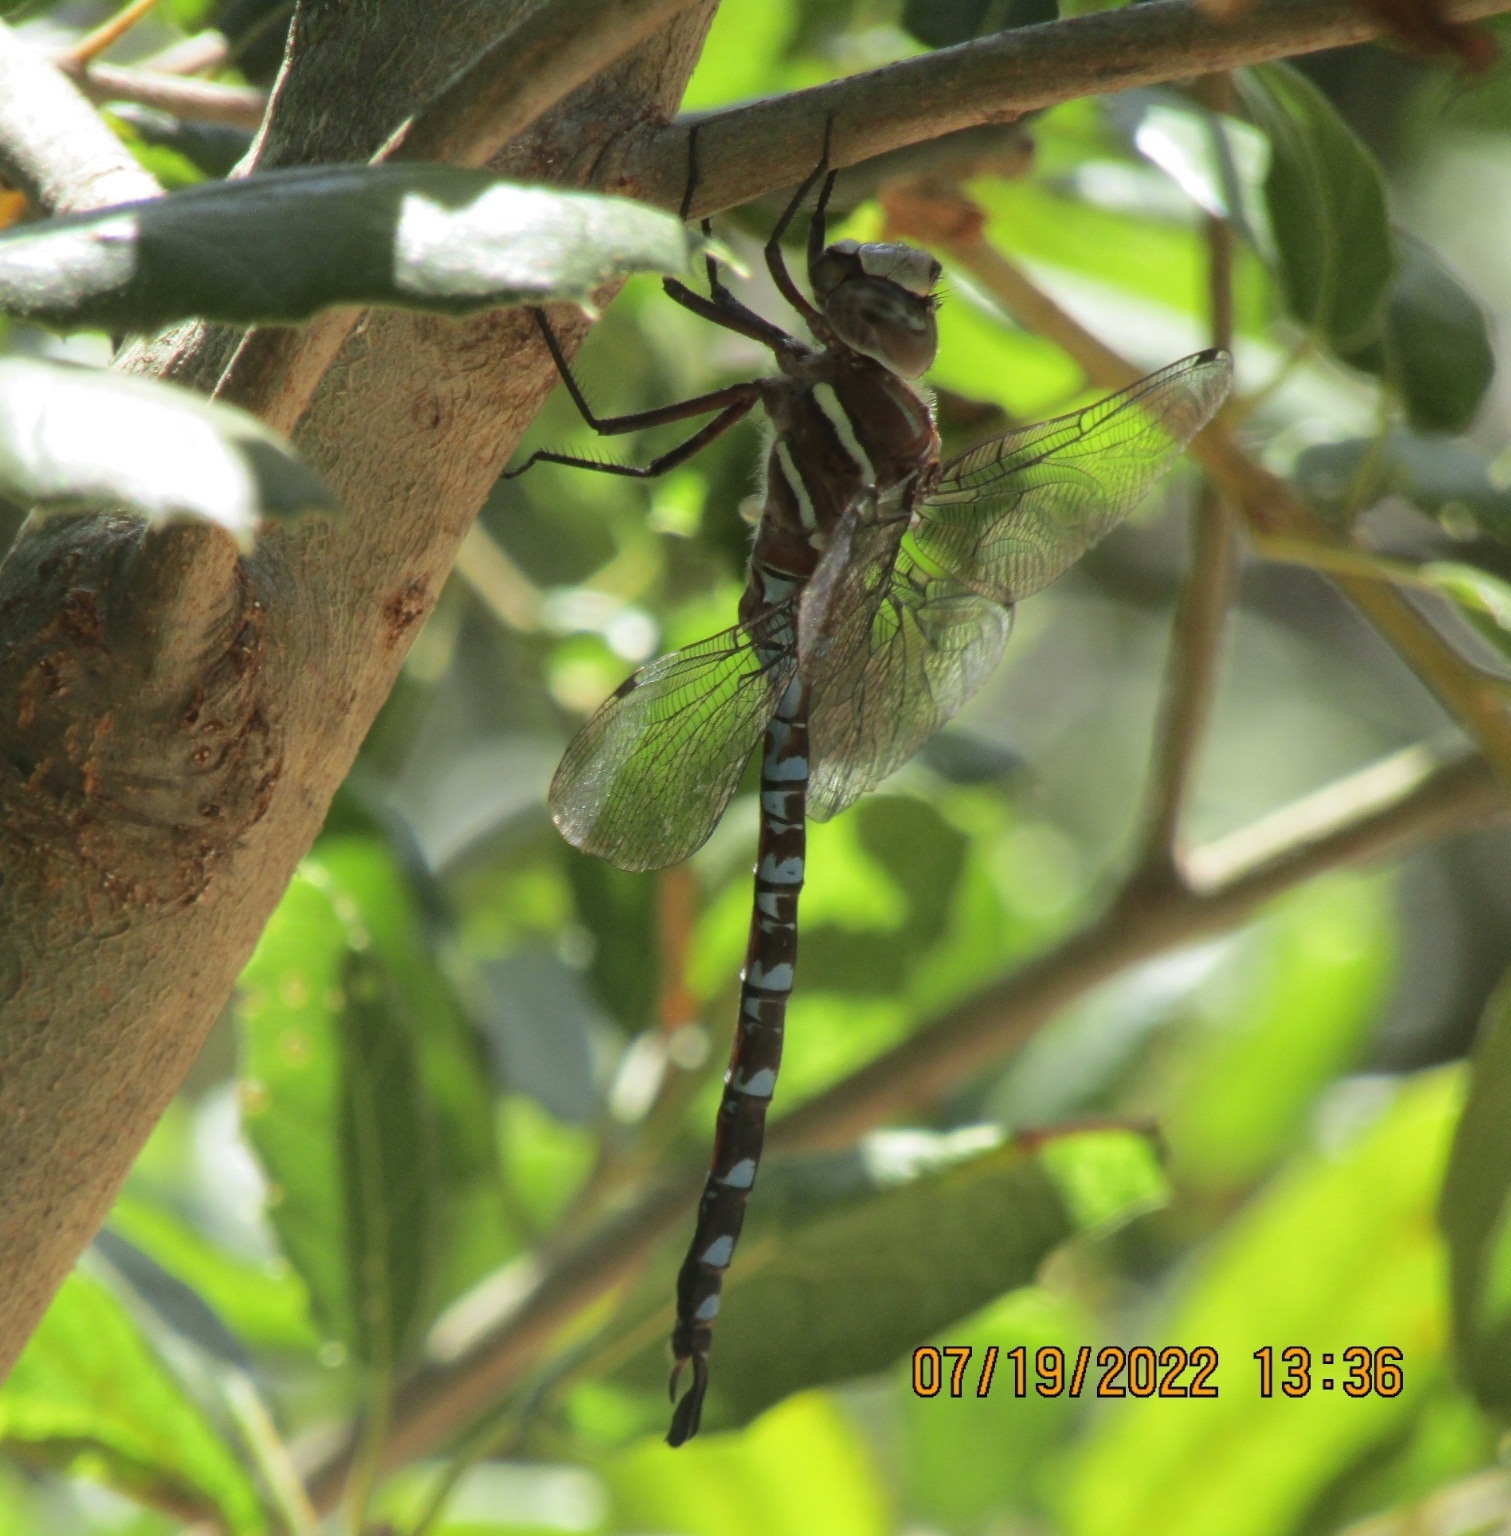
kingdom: Animalia
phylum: Arthropoda
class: Insecta
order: Odonata
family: Aeshnidae
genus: Aeshna
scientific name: Aeshna walkeri
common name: Walker's darner
